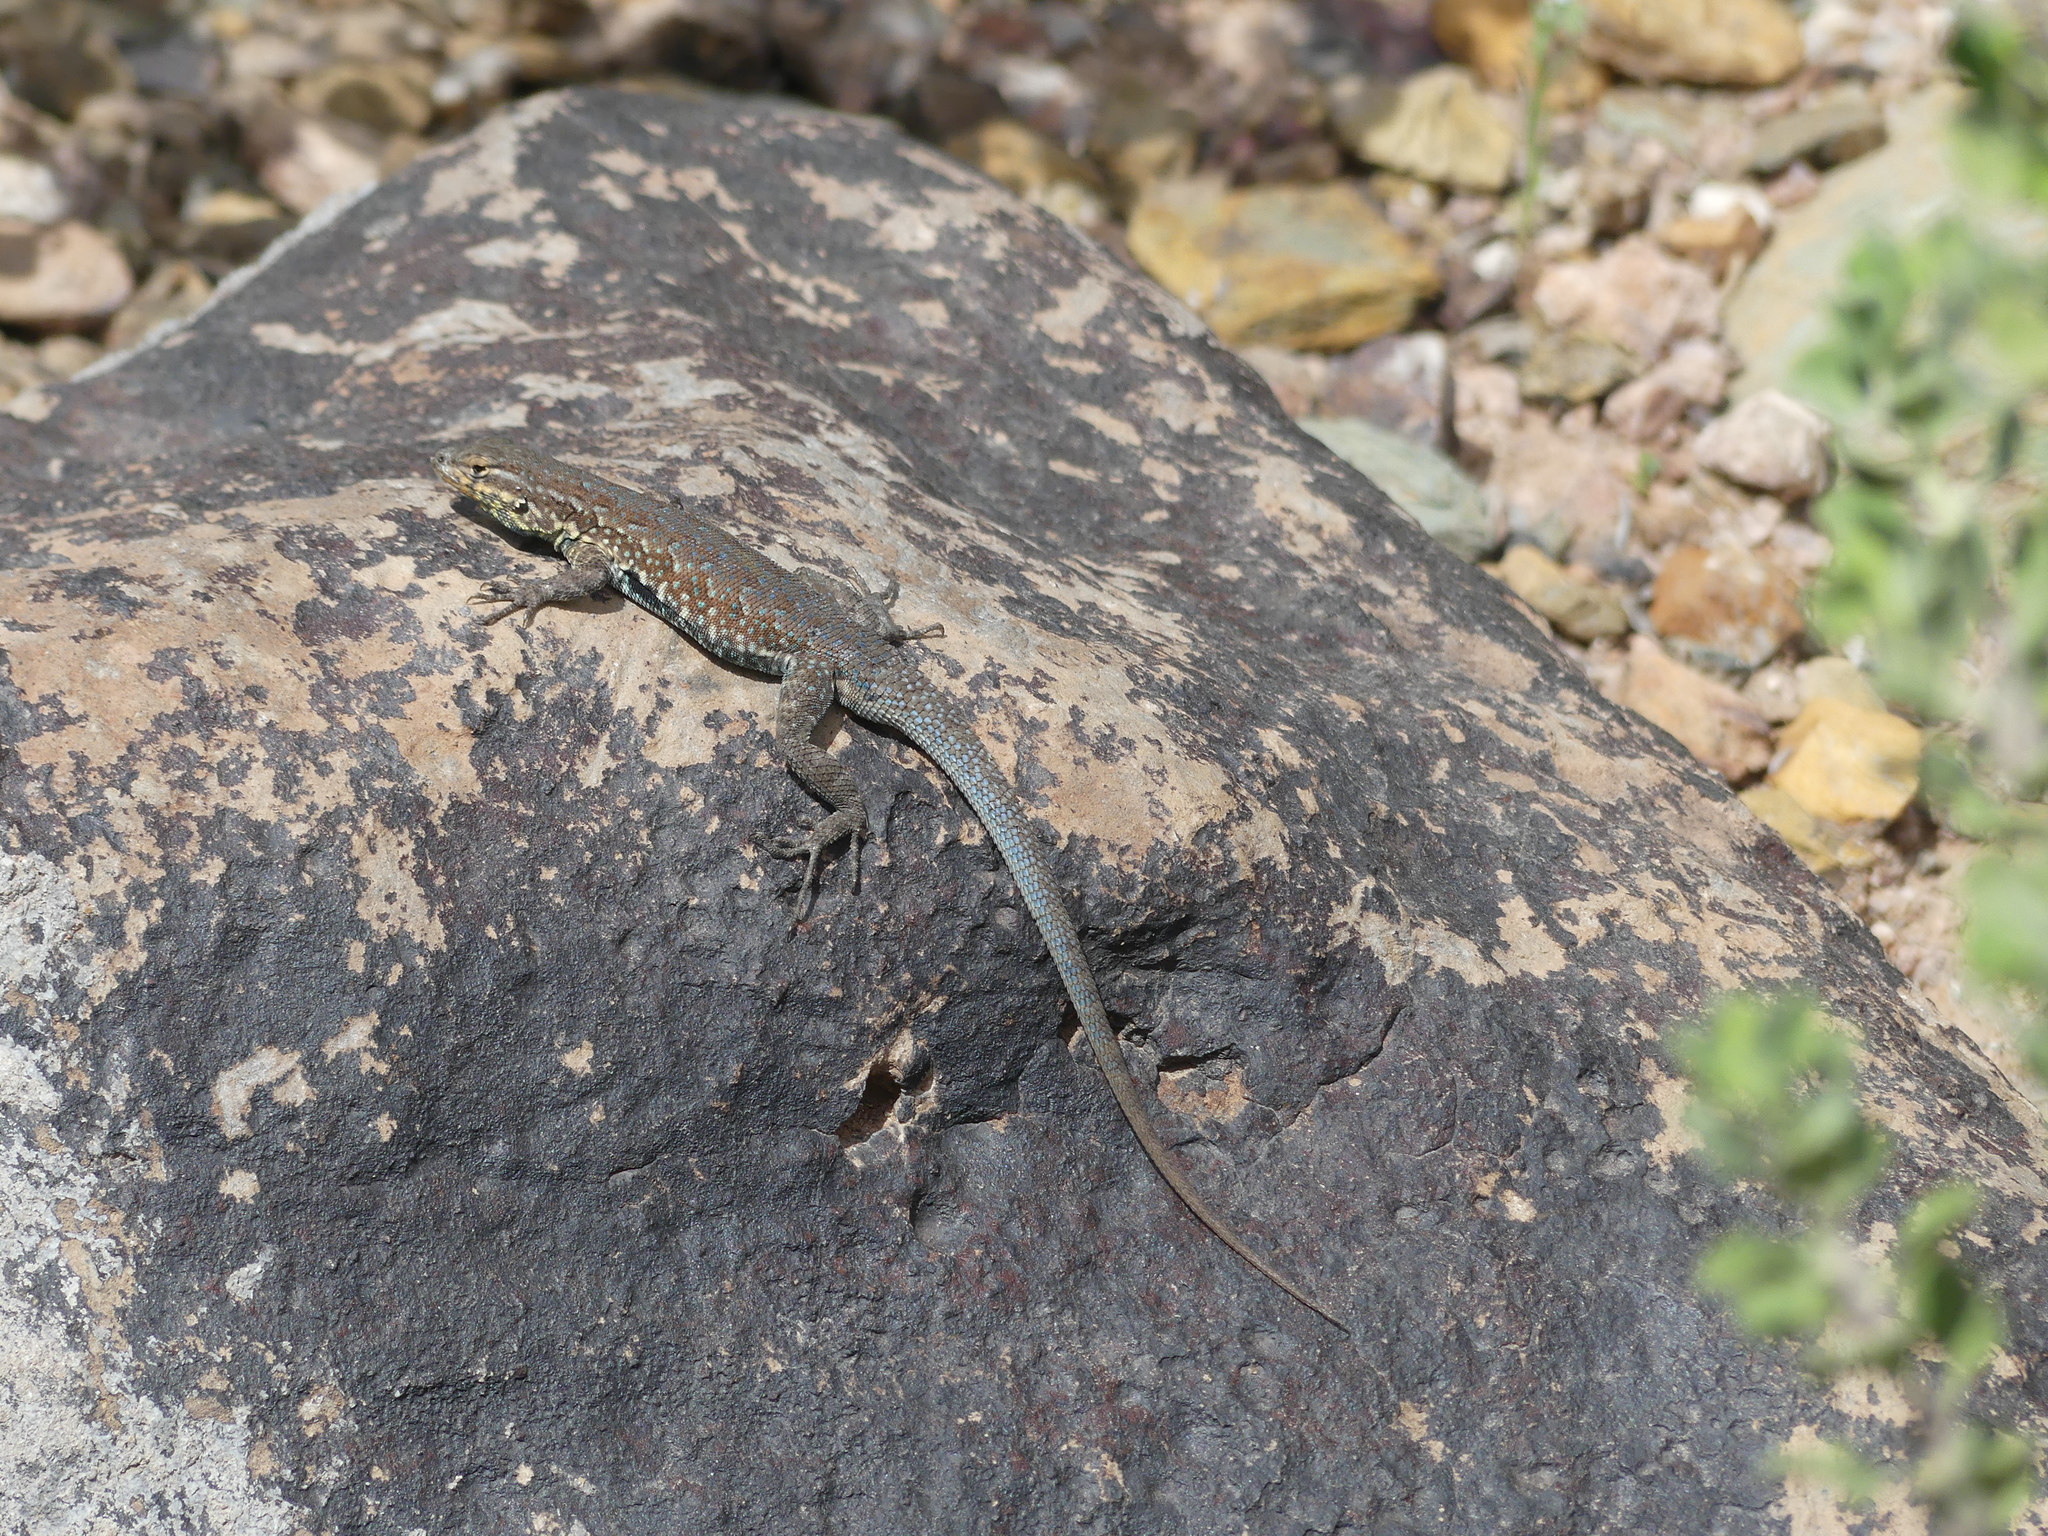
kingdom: Animalia
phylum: Chordata
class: Squamata
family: Phrynosomatidae
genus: Uta
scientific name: Uta stansburiana
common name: Side-blotched lizard
